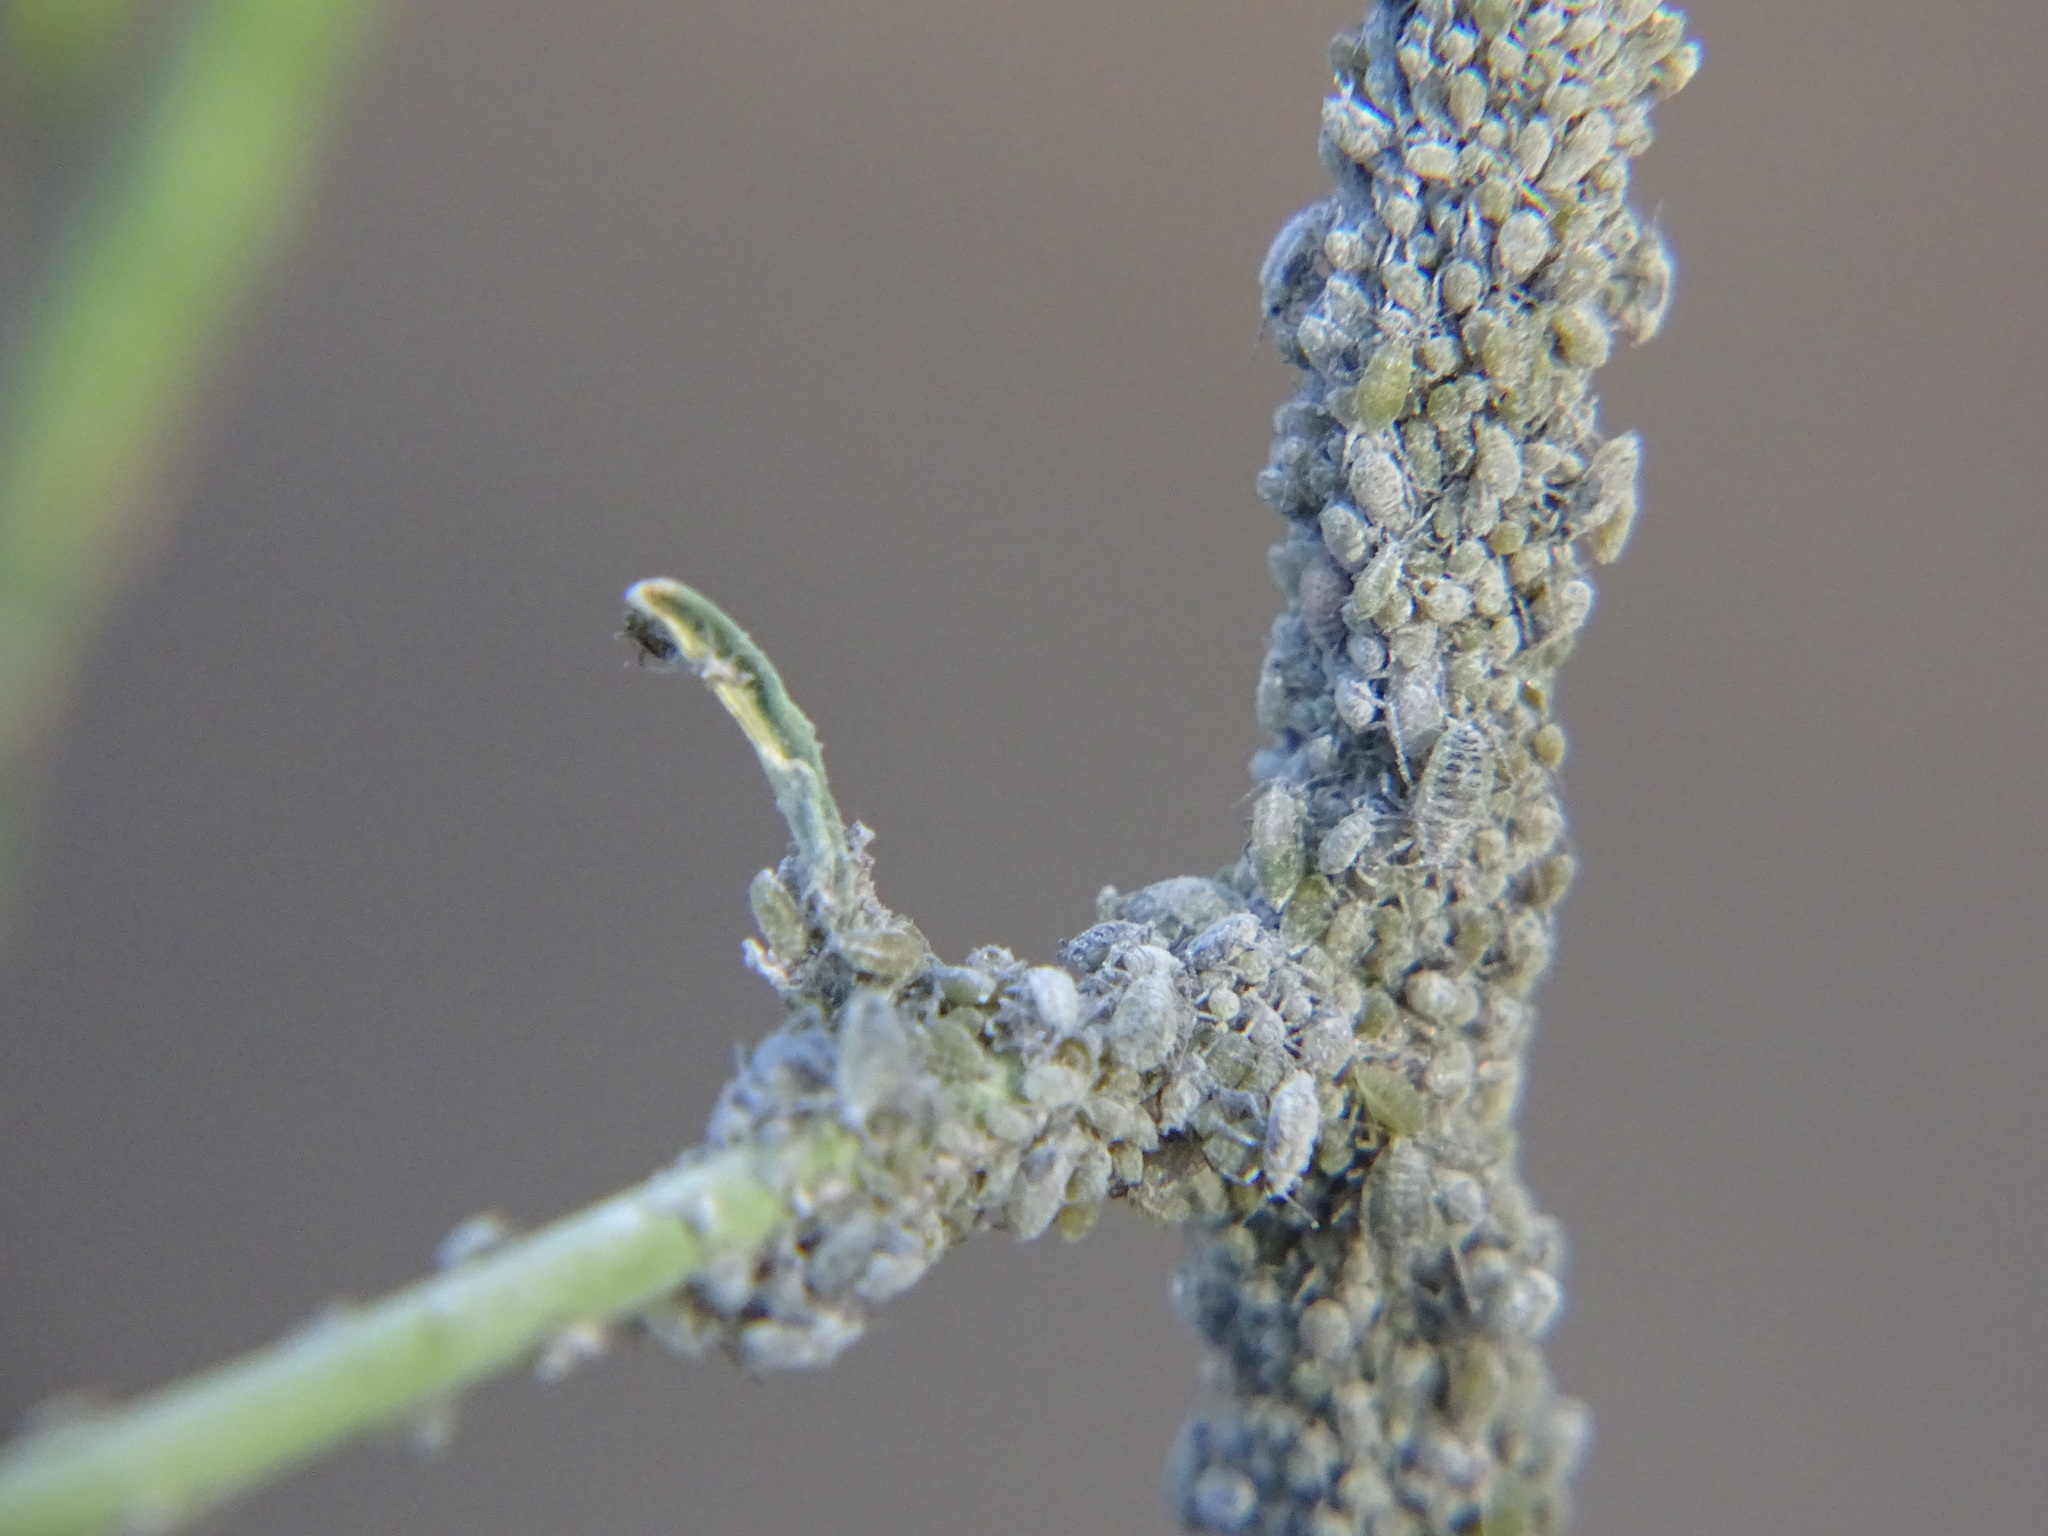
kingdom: Animalia
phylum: Arthropoda
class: Insecta
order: Hemiptera
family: Aphididae
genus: Brevicoryne
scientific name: Brevicoryne brassicae
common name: Cabbage aphid
